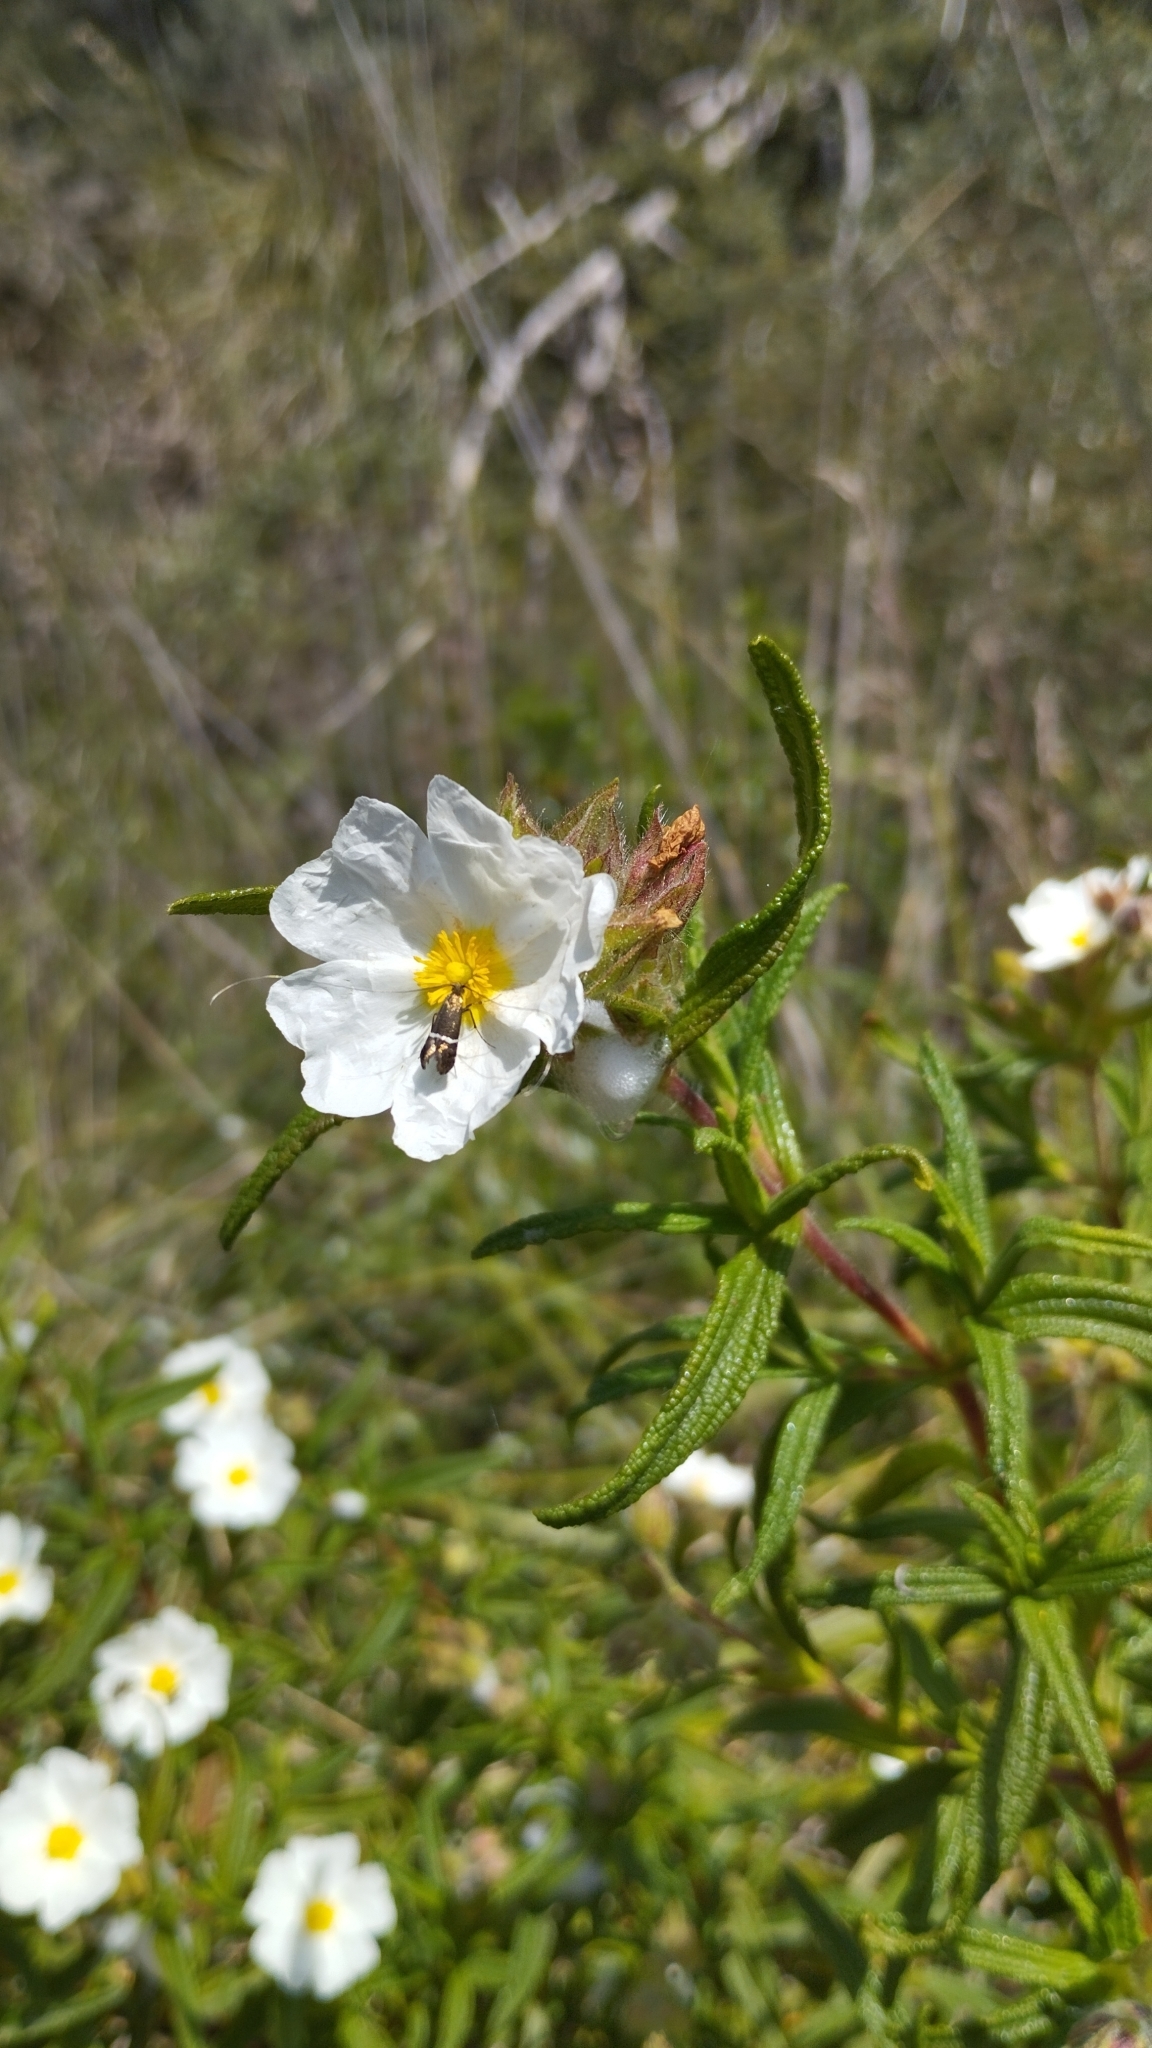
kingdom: Plantae
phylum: Tracheophyta
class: Magnoliopsida
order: Malvales
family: Cistaceae
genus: Cistus
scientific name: Cistus monspeliensis
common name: Montpelier cistus
